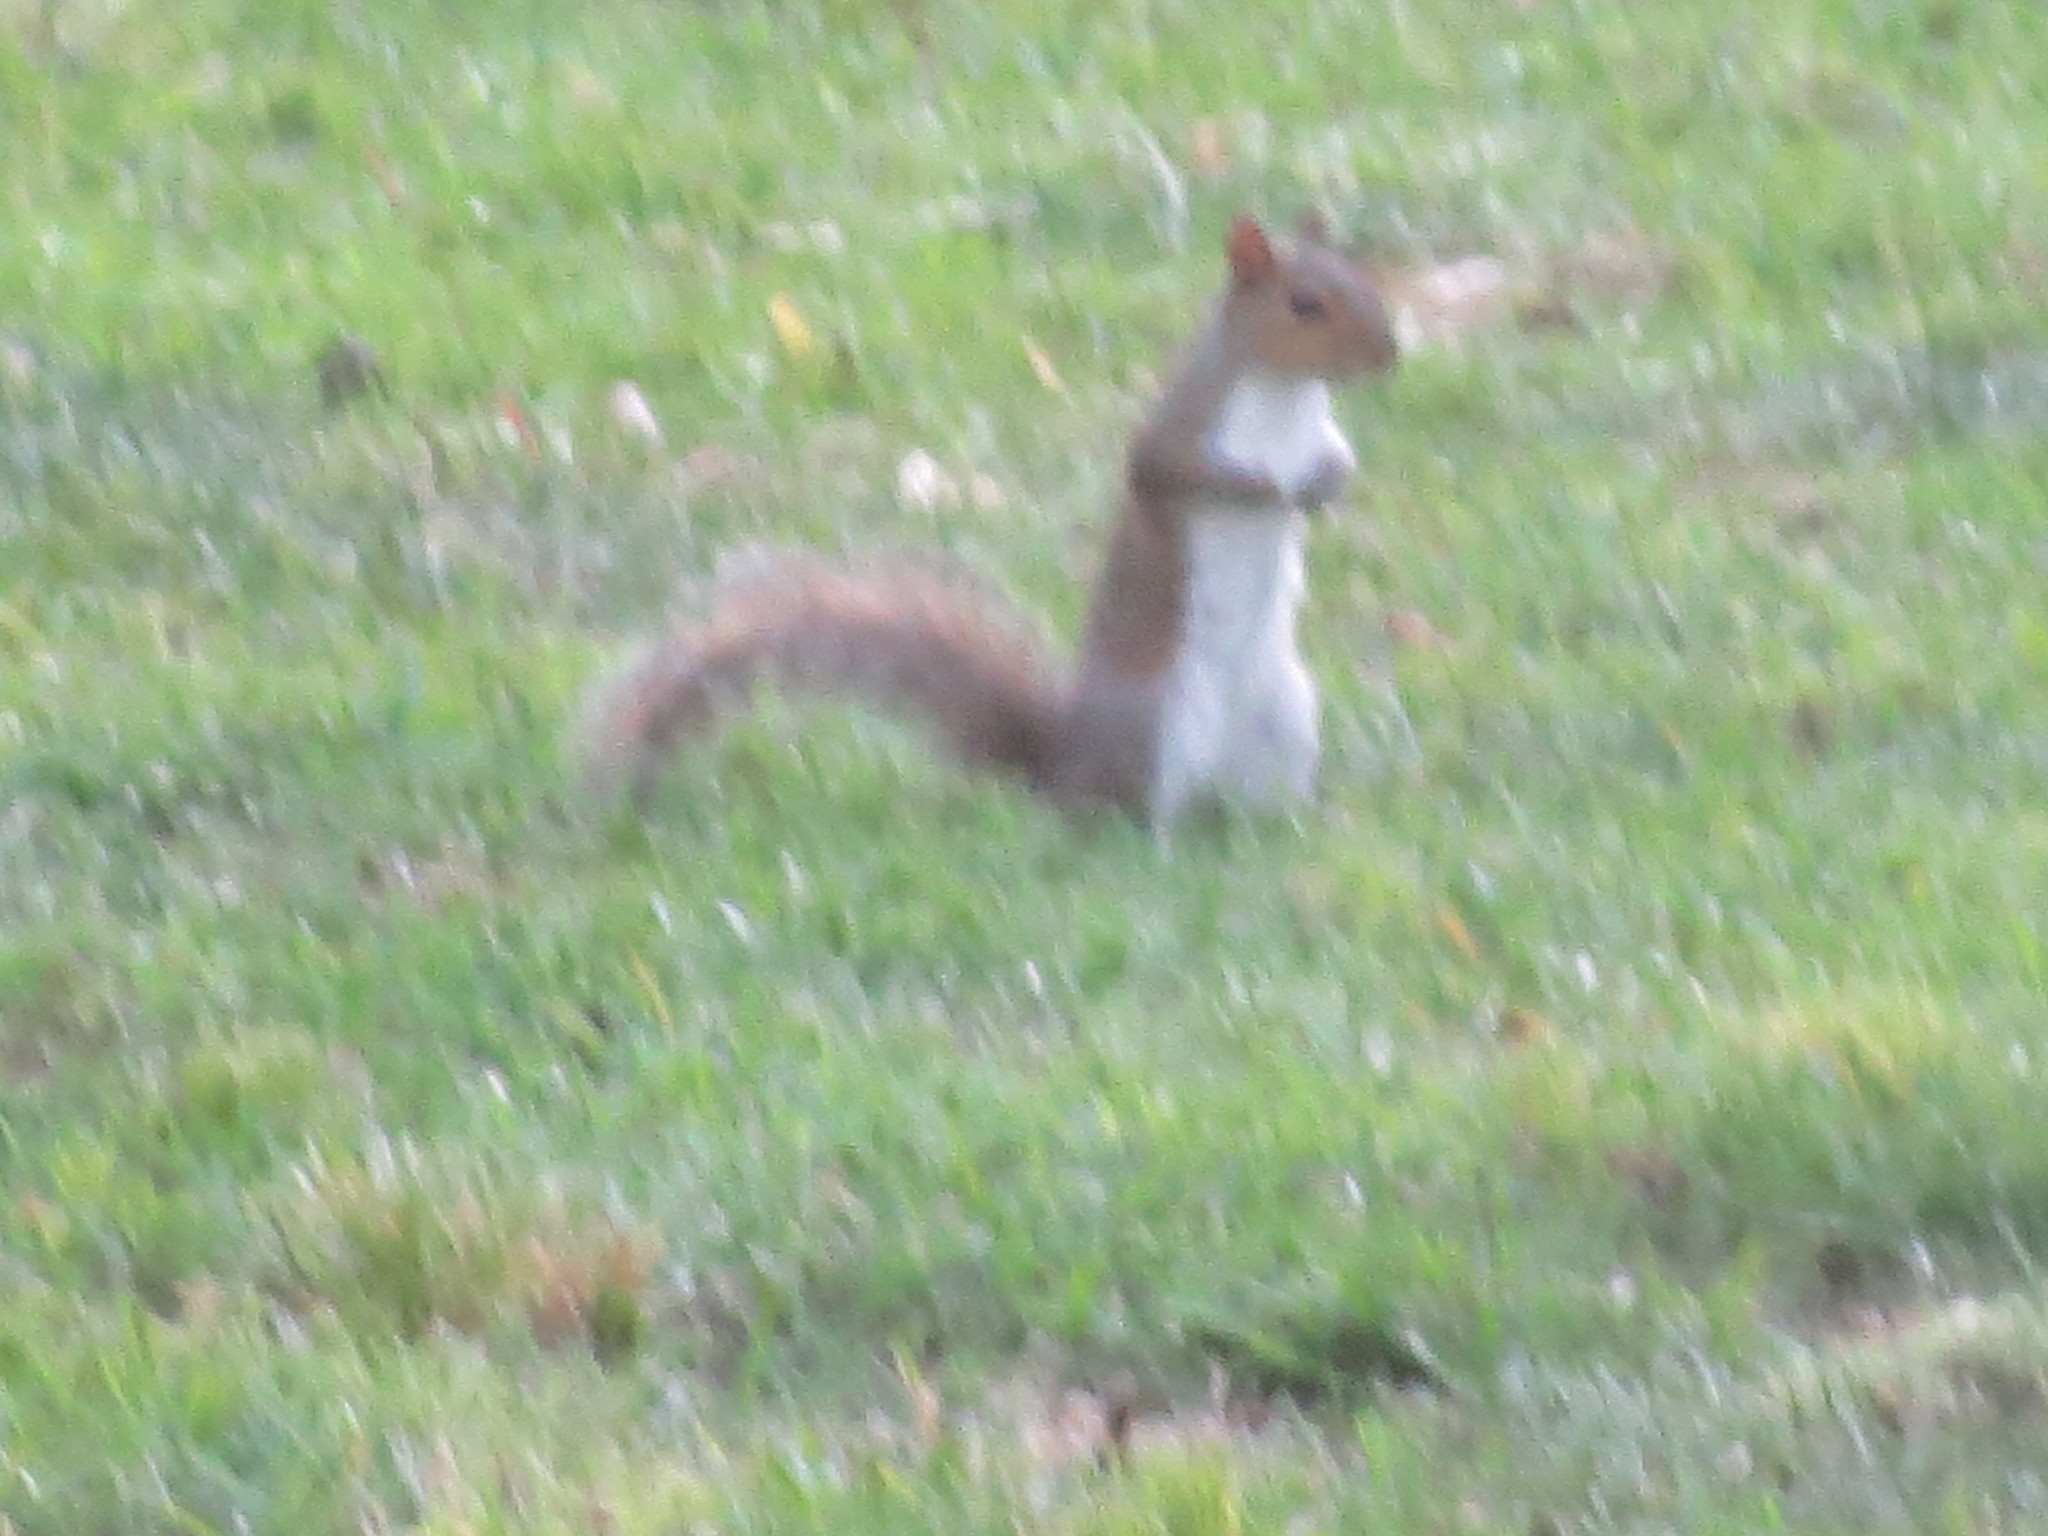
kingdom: Animalia
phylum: Chordata
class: Mammalia
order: Rodentia
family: Sciuridae
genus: Sciurus
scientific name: Sciurus carolinensis
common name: Eastern gray squirrel
